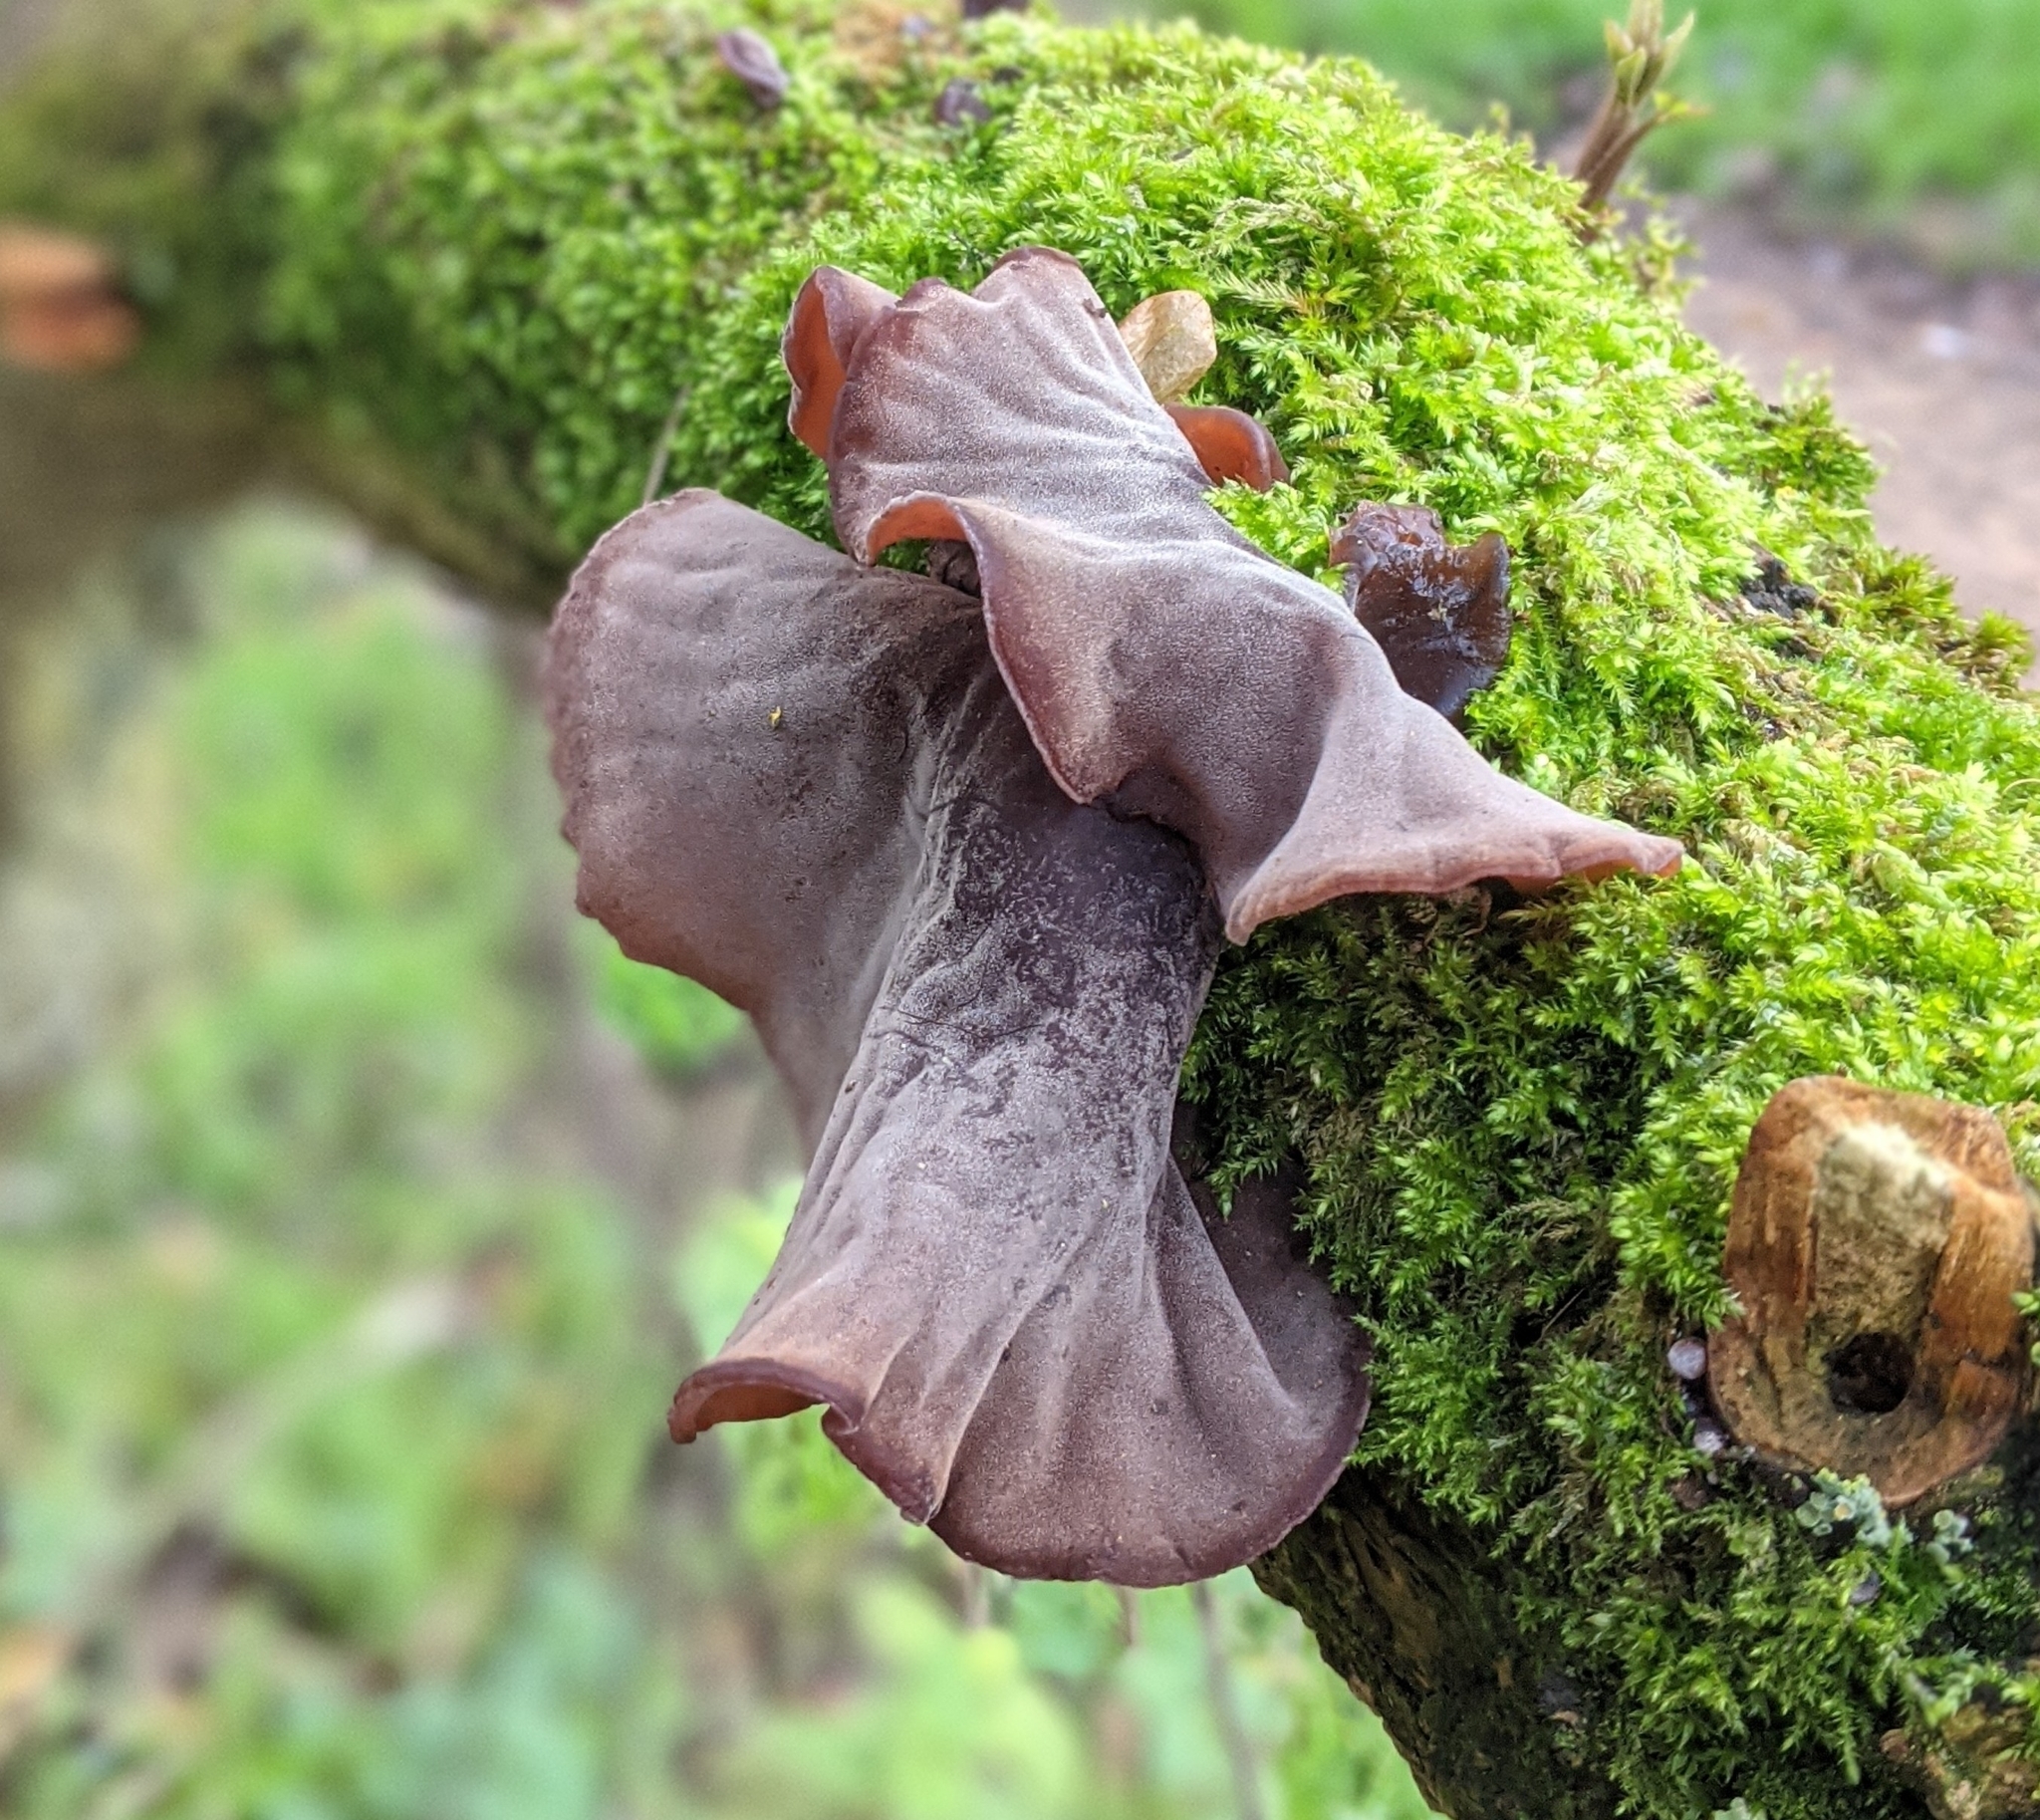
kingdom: Fungi
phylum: Basidiomycota
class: Agaricomycetes
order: Auriculariales
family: Auriculariaceae
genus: Auricularia
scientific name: Auricularia auricula-judae
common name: Jelly ear
